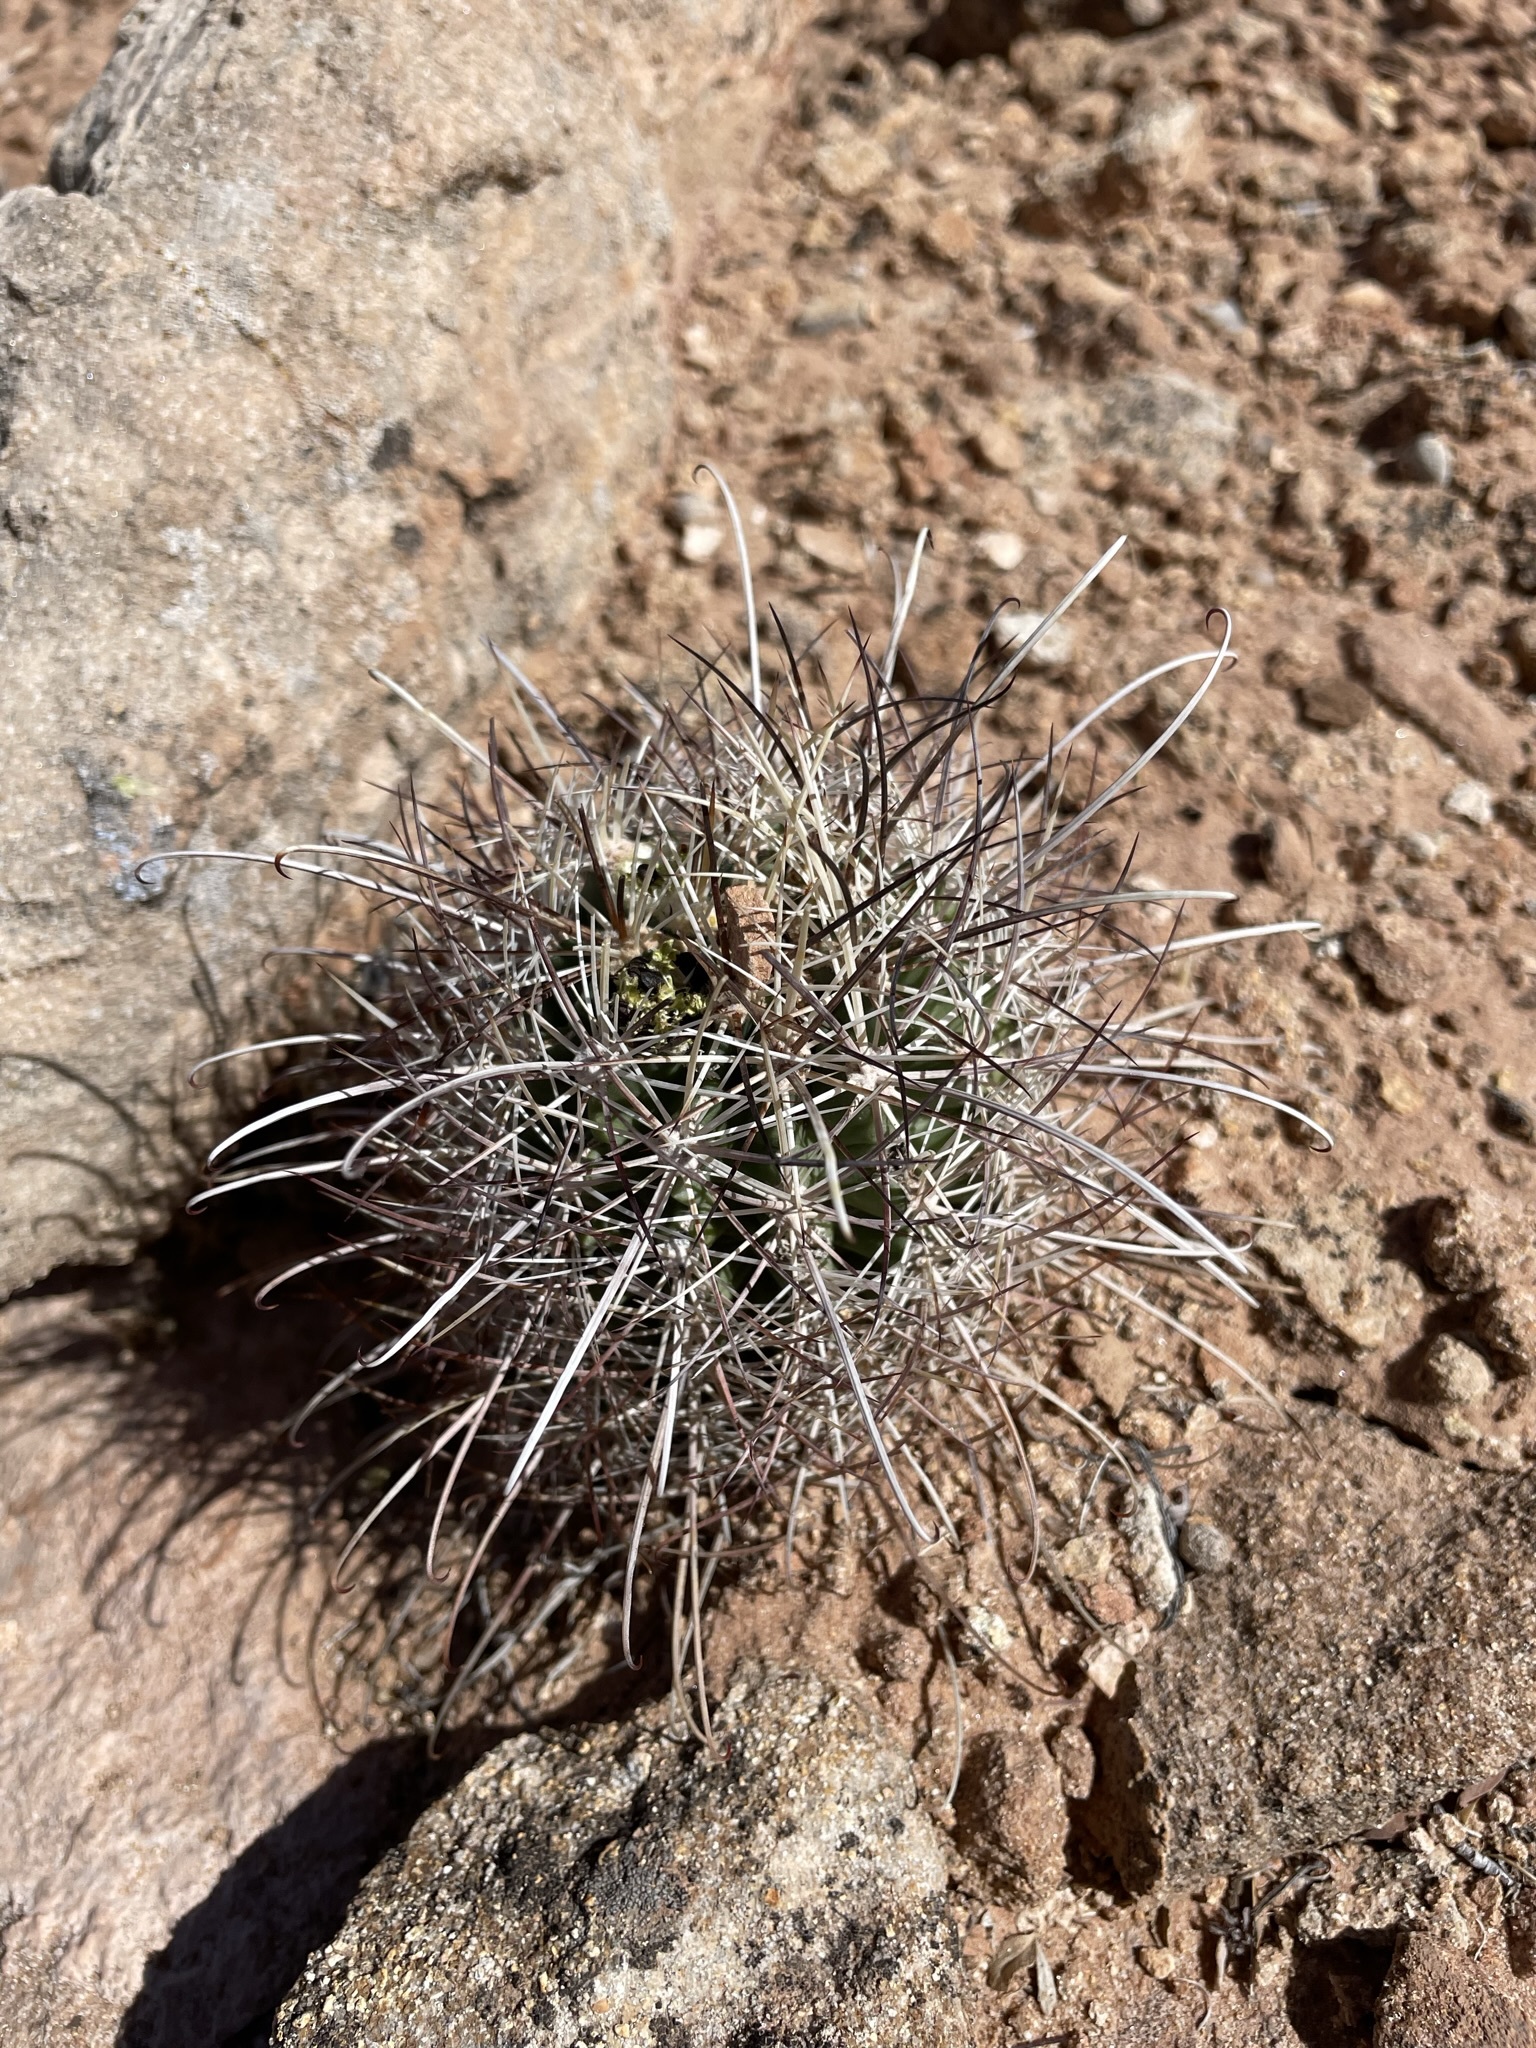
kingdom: Plantae
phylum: Tracheophyta
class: Magnoliopsida
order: Caryophyllales
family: Cactaceae
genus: Sclerocactus
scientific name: Sclerocactus parviflorus
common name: Small-flower fishhook cactus
